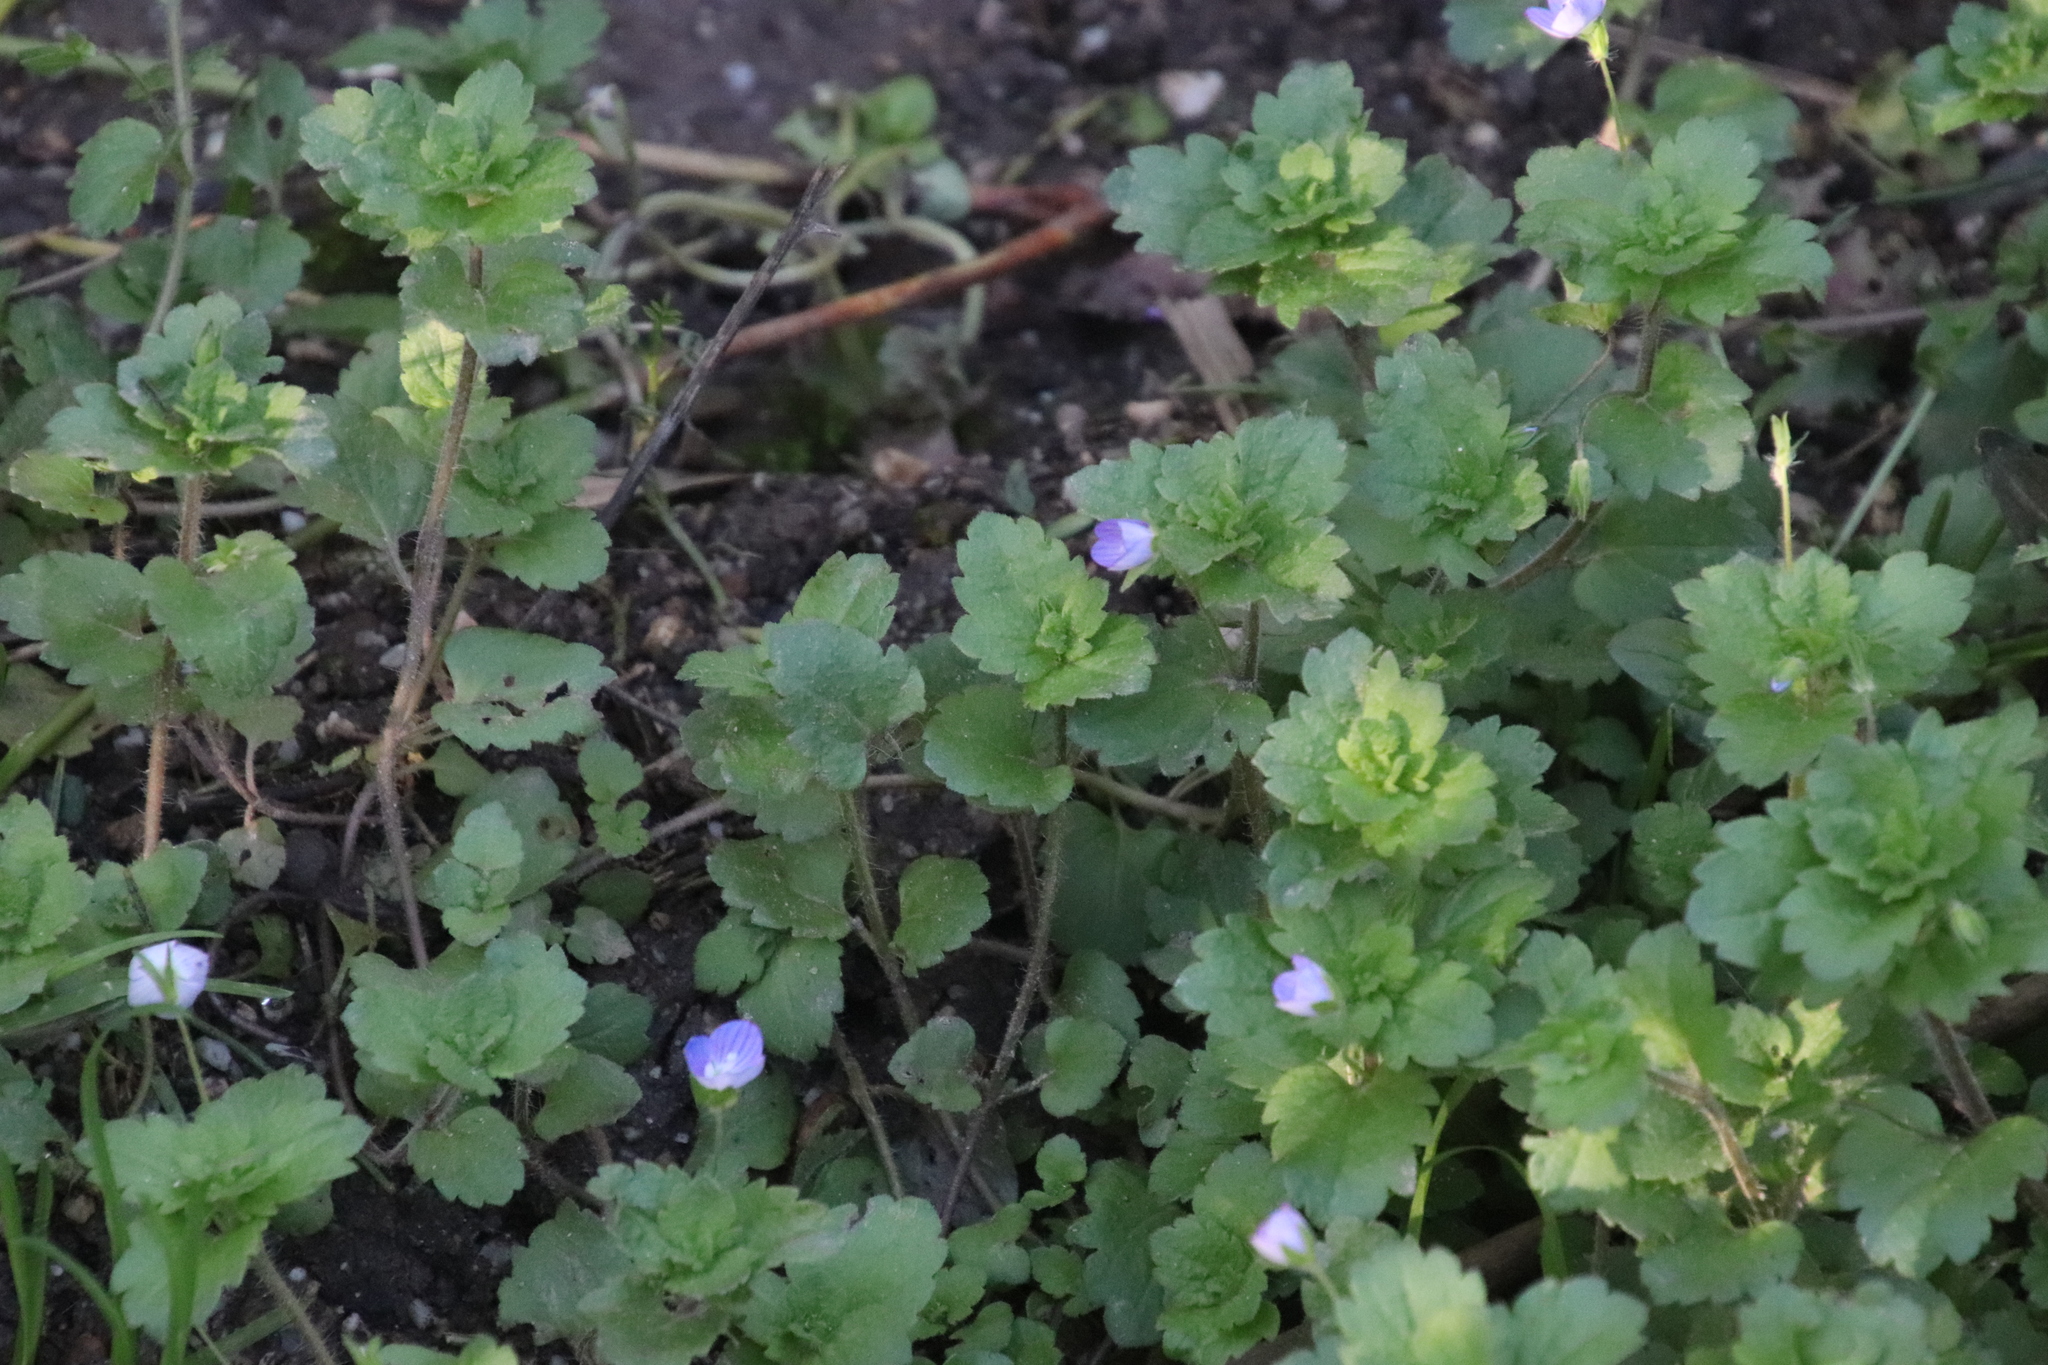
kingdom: Plantae
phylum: Tracheophyta
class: Magnoliopsida
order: Lamiales
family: Plantaginaceae
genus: Veronica
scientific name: Veronica persica
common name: Common field-speedwell
